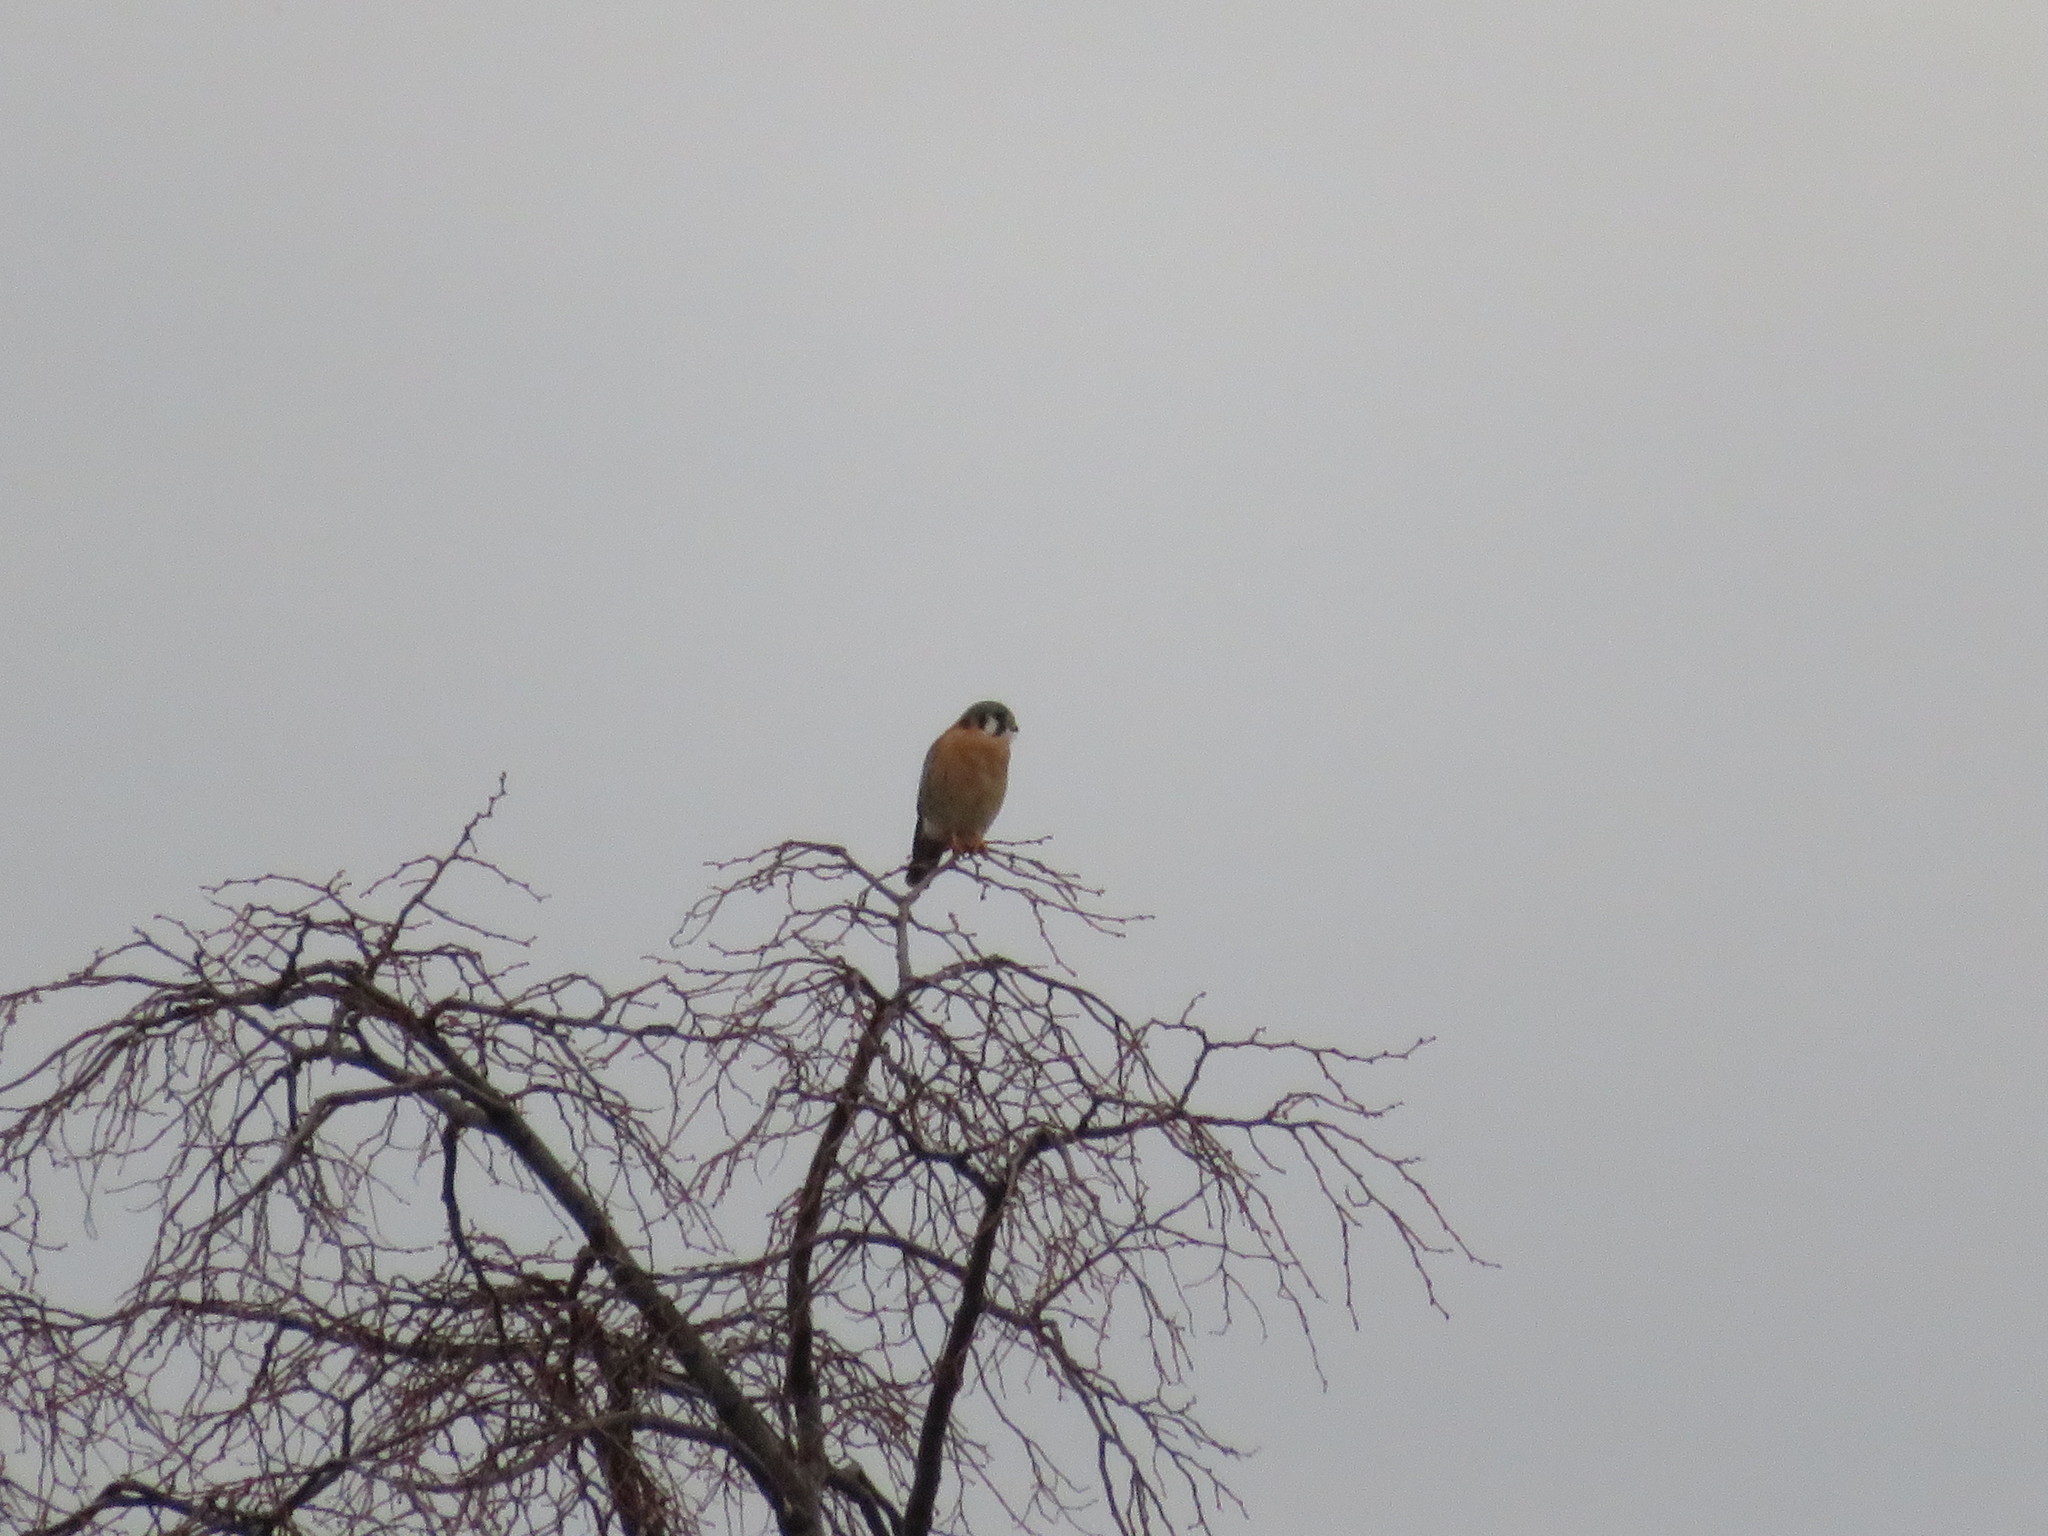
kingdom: Animalia
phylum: Chordata
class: Aves
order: Falconiformes
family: Falconidae
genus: Falco
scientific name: Falco sparverius
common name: American kestrel
